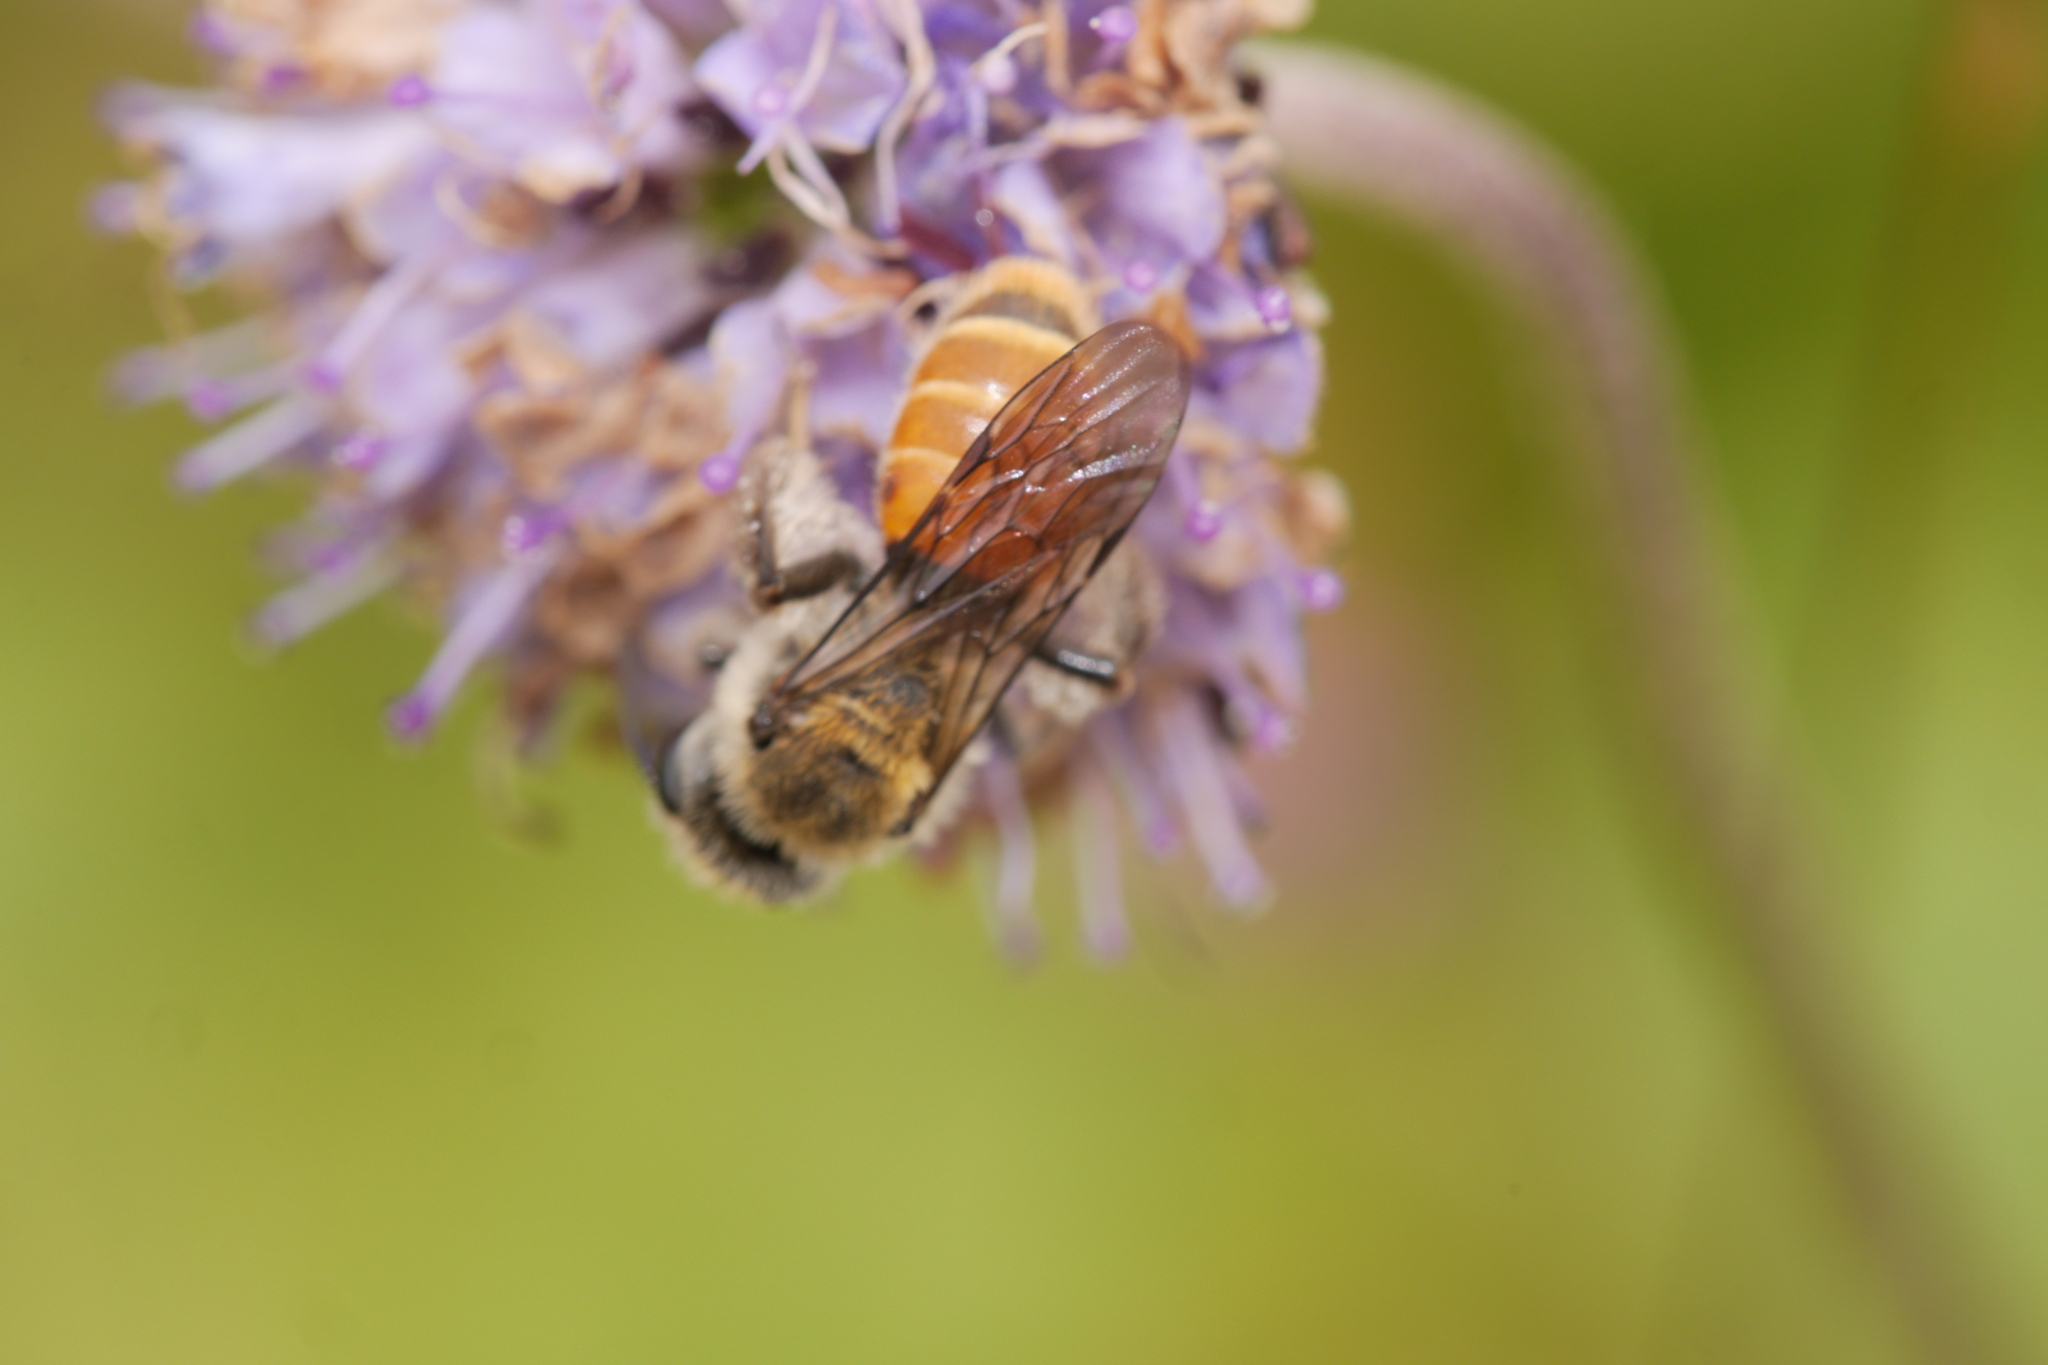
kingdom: Animalia
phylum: Arthropoda
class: Insecta
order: Hymenoptera
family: Andrenidae
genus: Andrena
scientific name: Andrena marginata
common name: Small scabious mining bee
